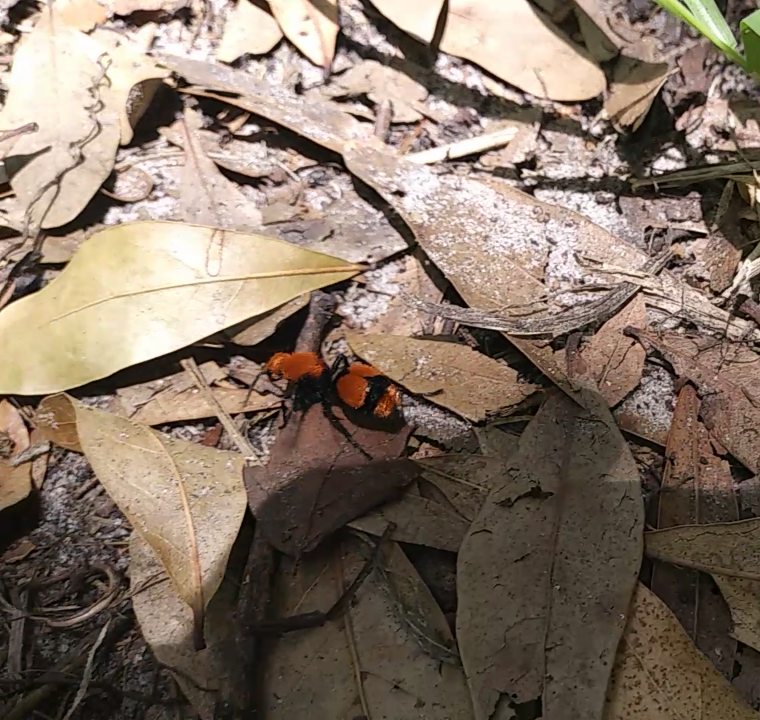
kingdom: Animalia
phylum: Arthropoda
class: Insecta
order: Hymenoptera
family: Mutillidae
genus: Dasymutilla
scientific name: Dasymutilla occidentalis
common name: Common eastern velvet ant
